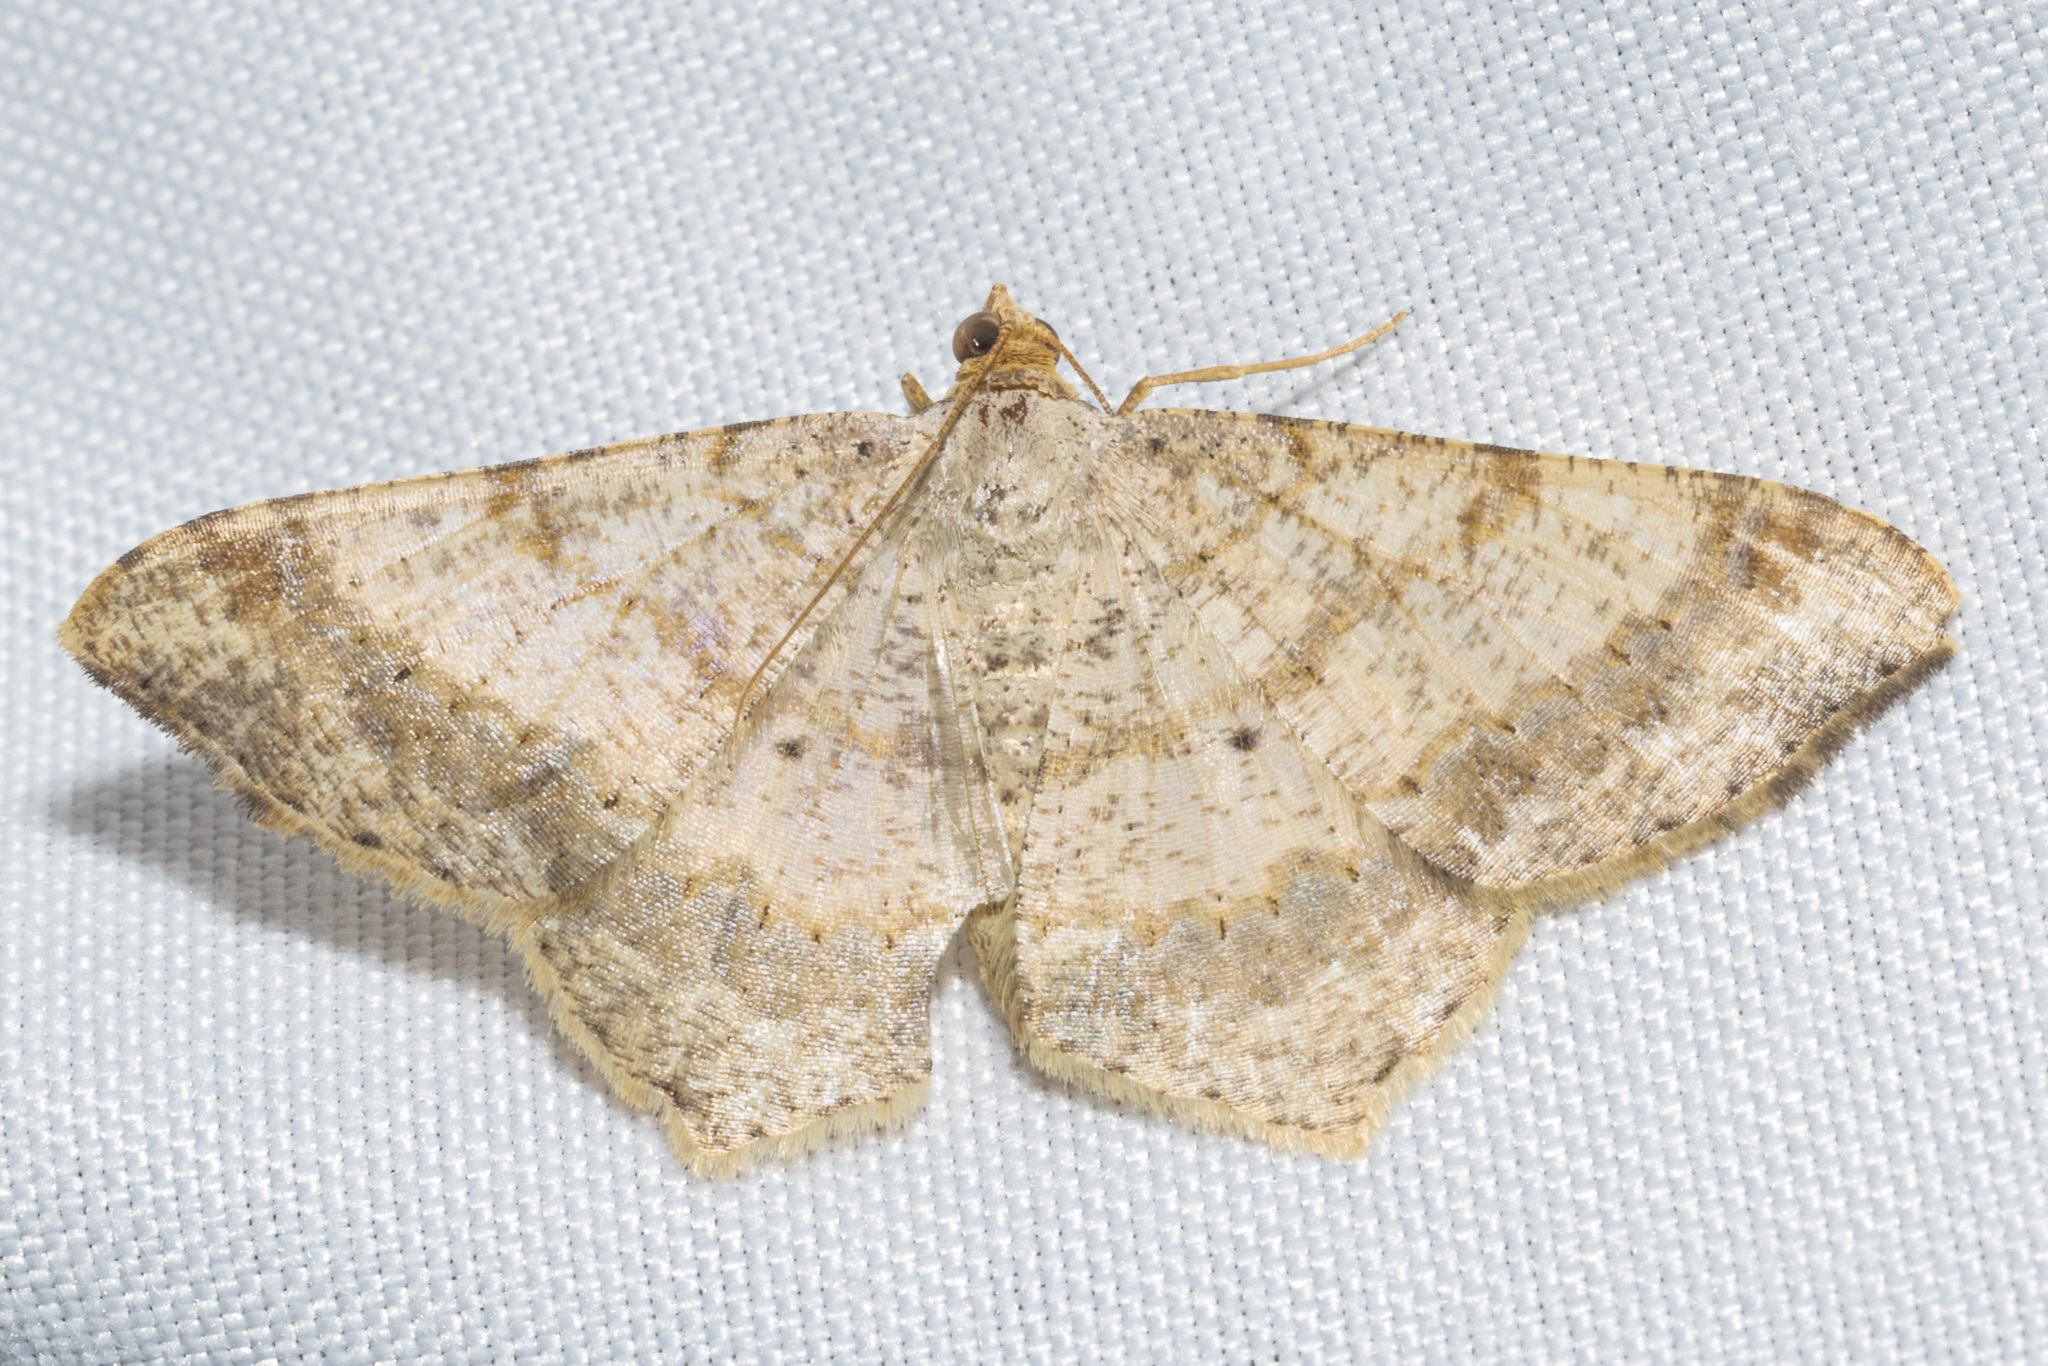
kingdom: Animalia
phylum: Arthropoda
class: Insecta
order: Lepidoptera
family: Geometridae
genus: Macaria
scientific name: Macaria abydata
